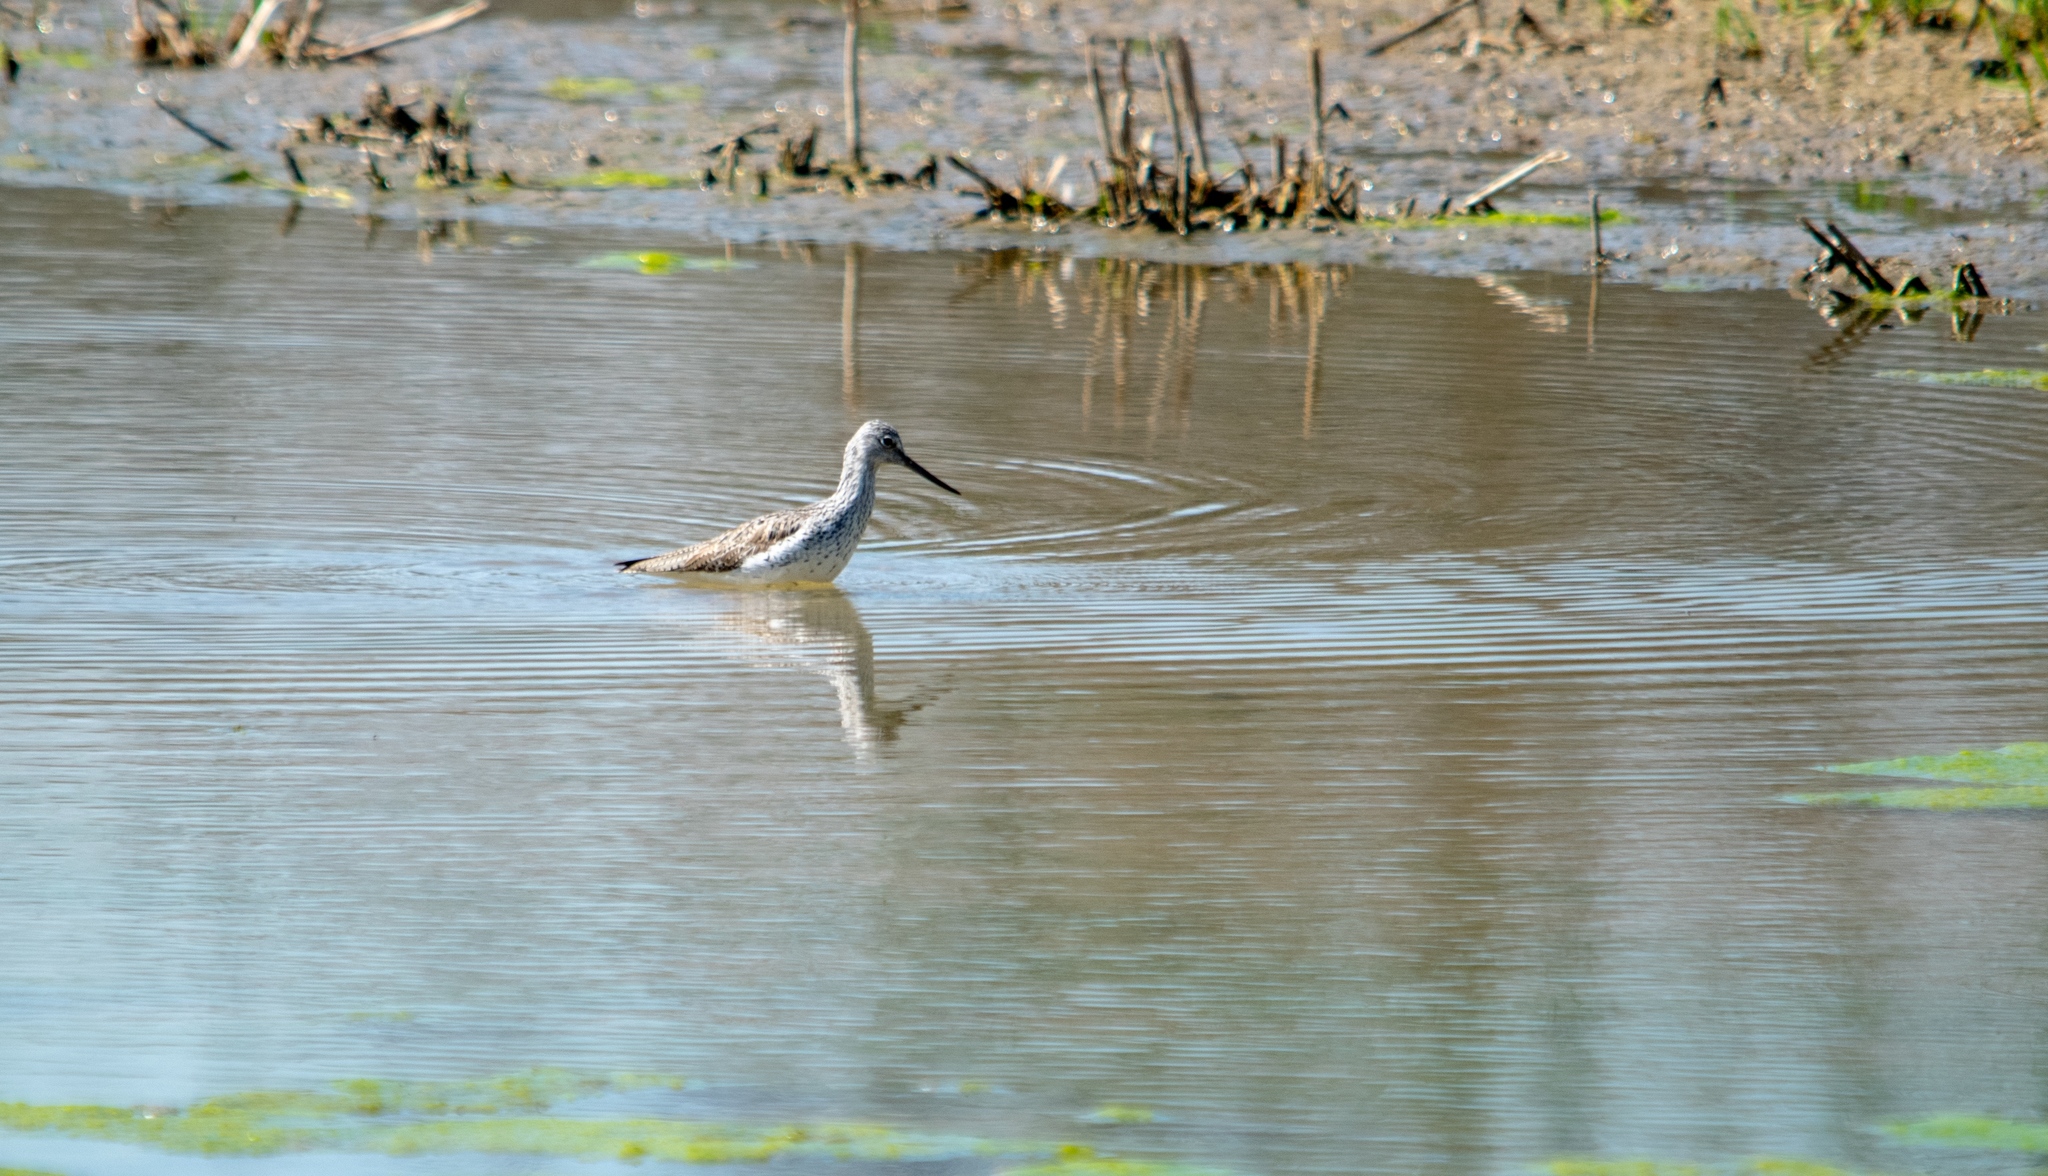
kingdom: Animalia
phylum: Chordata
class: Aves
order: Charadriiformes
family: Scolopacidae
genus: Tringa
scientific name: Tringa nebularia
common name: Common greenshank
